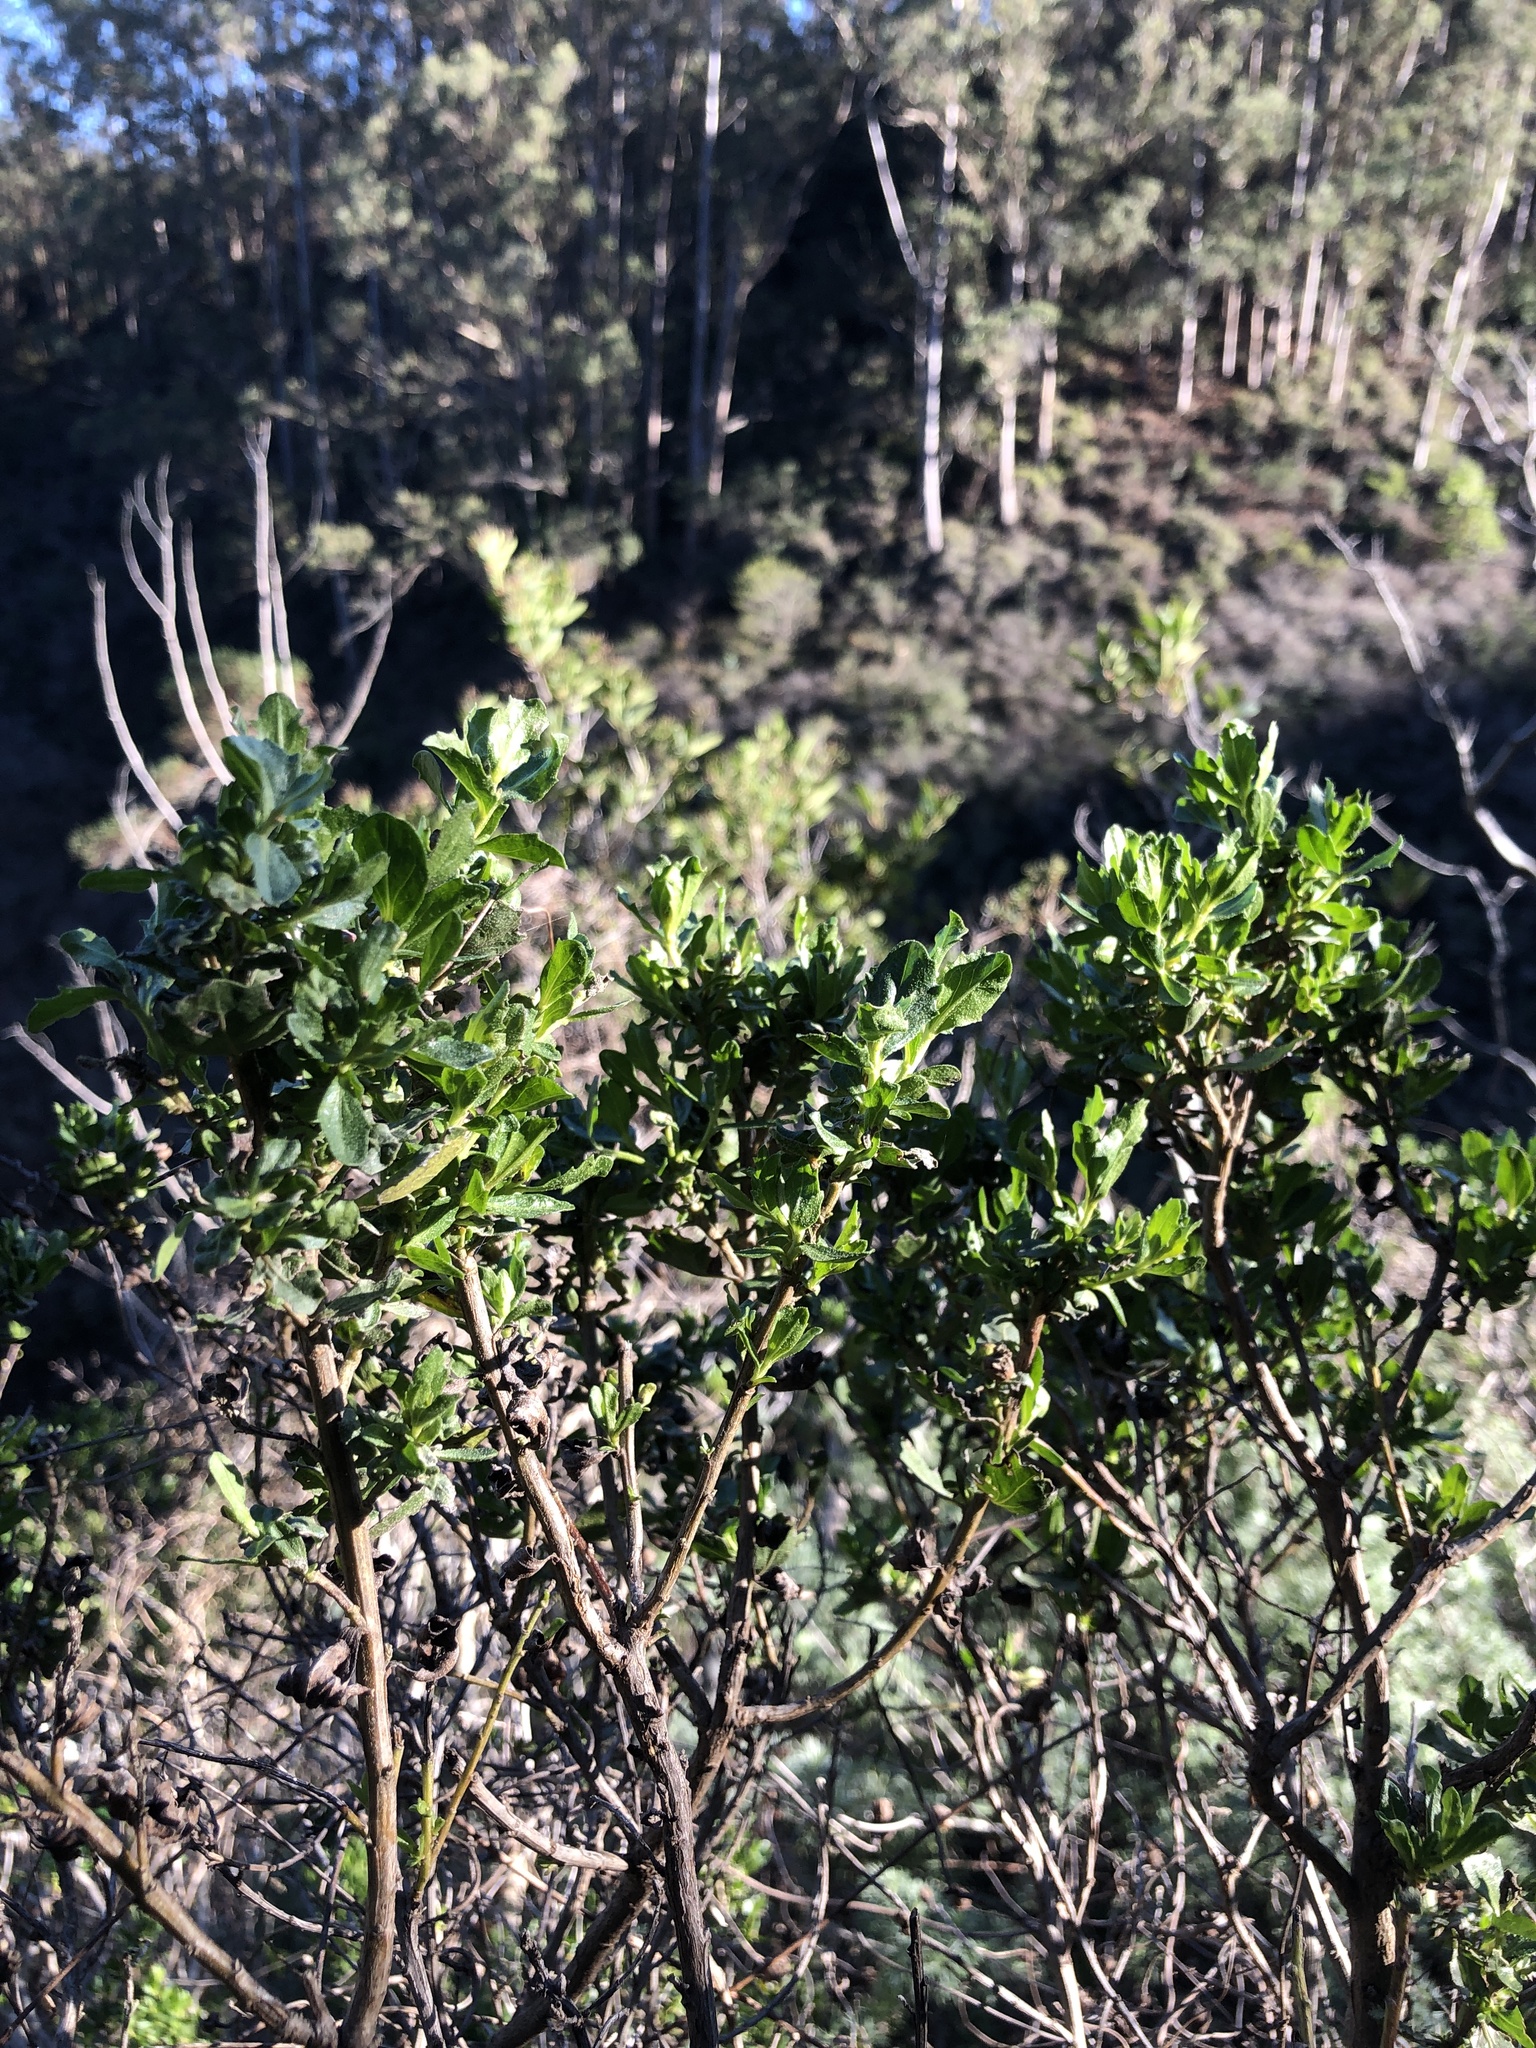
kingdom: Plantae
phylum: Tracheophyta
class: Magnoliopsida
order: Asterales
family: Asteraceae
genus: Baccharis
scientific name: Baccharis pilularis
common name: Coyotebrush
